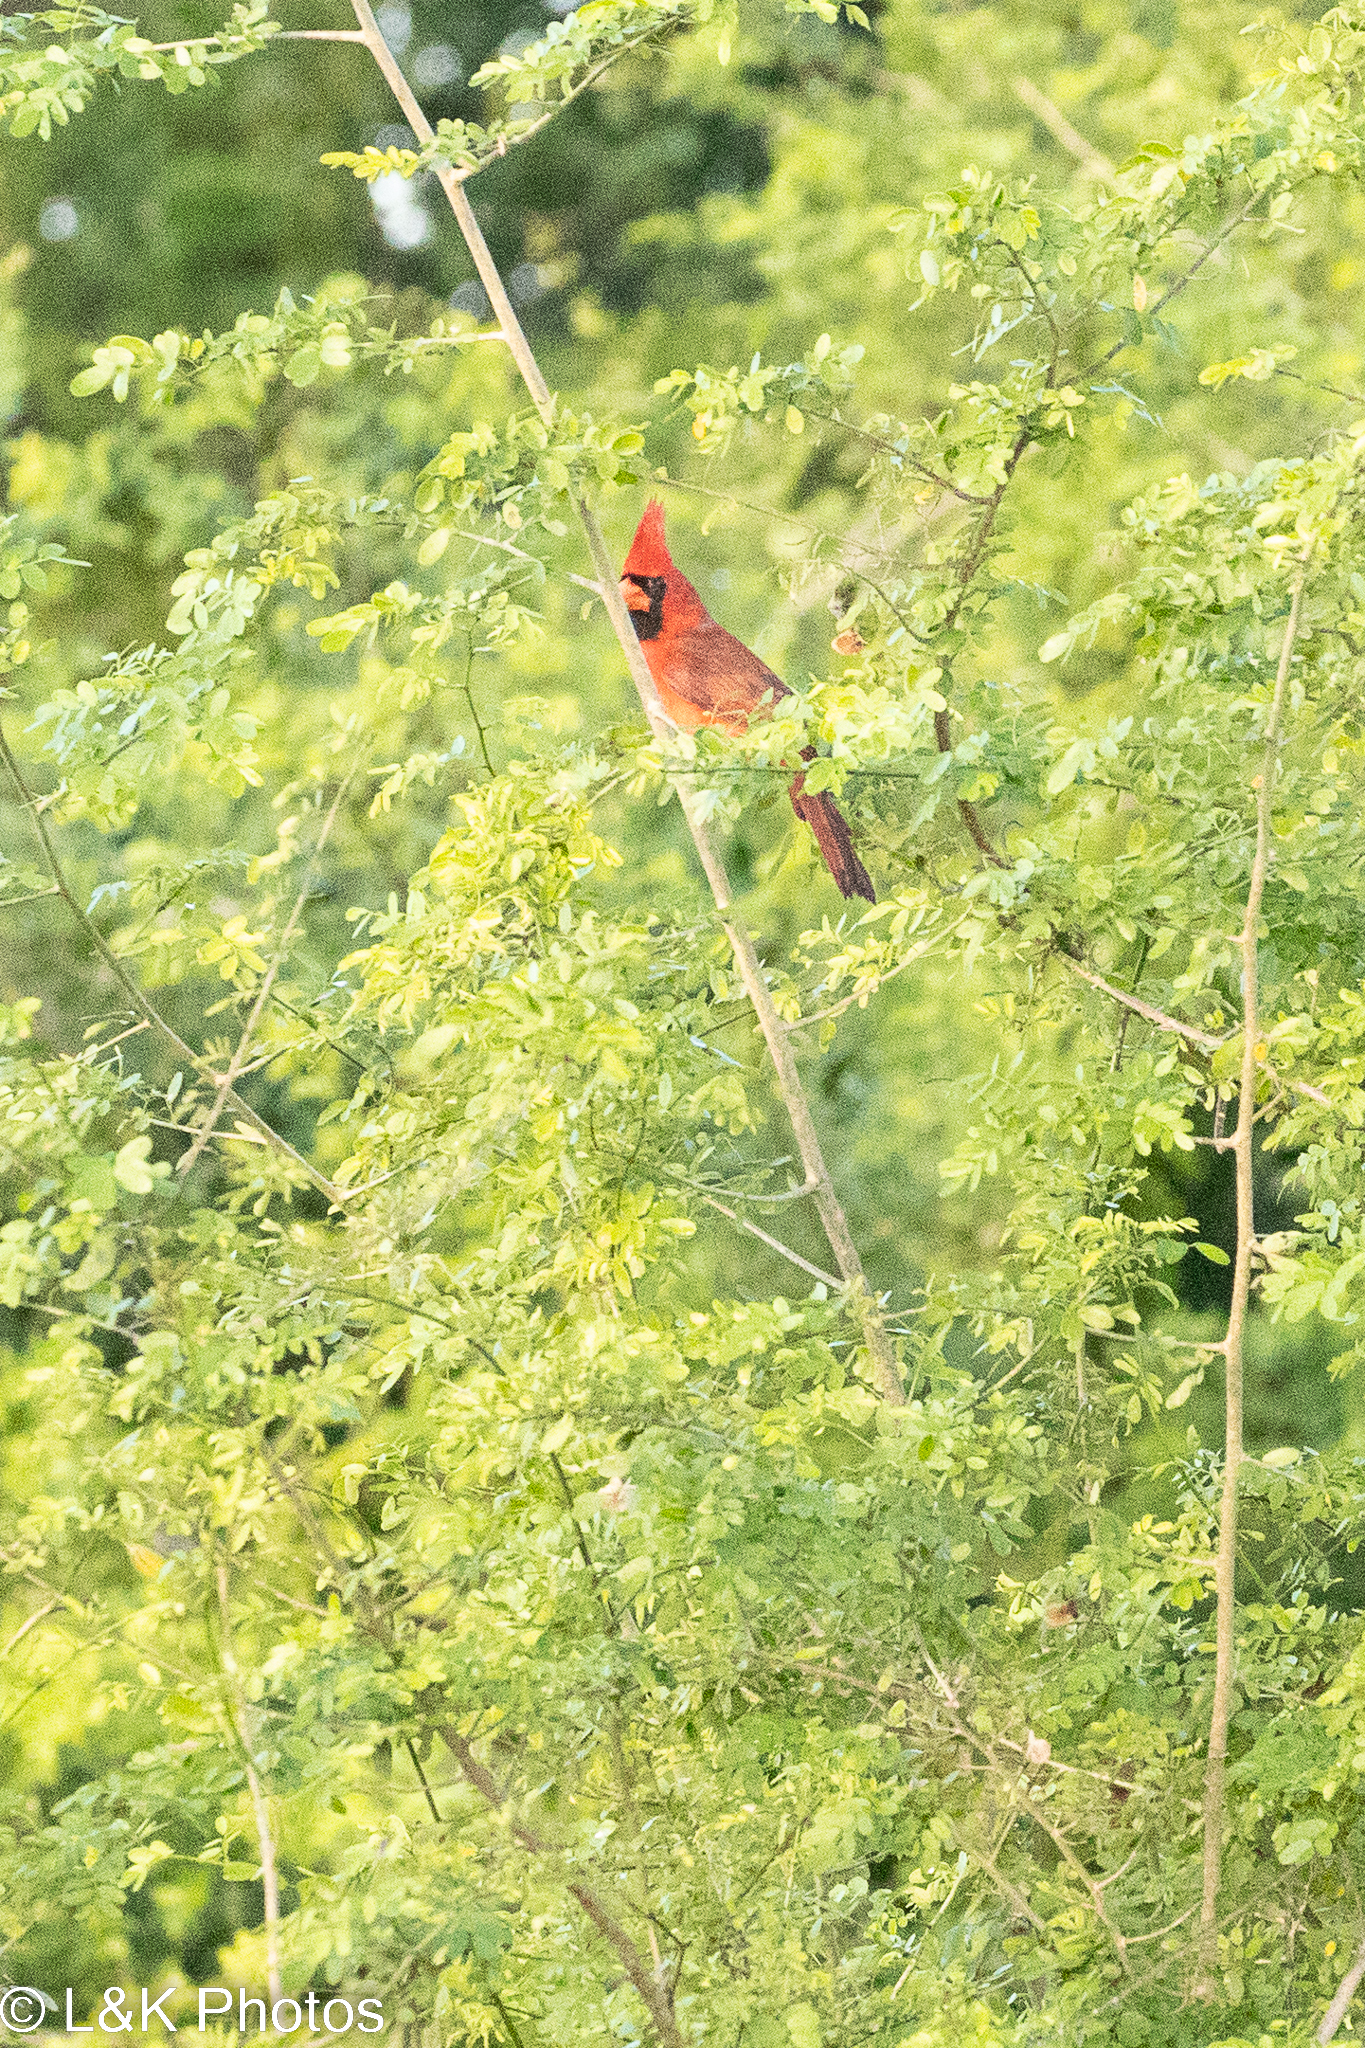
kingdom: Animalia
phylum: Chordata
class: Aves
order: Passeriformes
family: Cardinalidae
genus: Cardinalis
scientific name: Cardinalis cardinalis
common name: Northern cardinal
